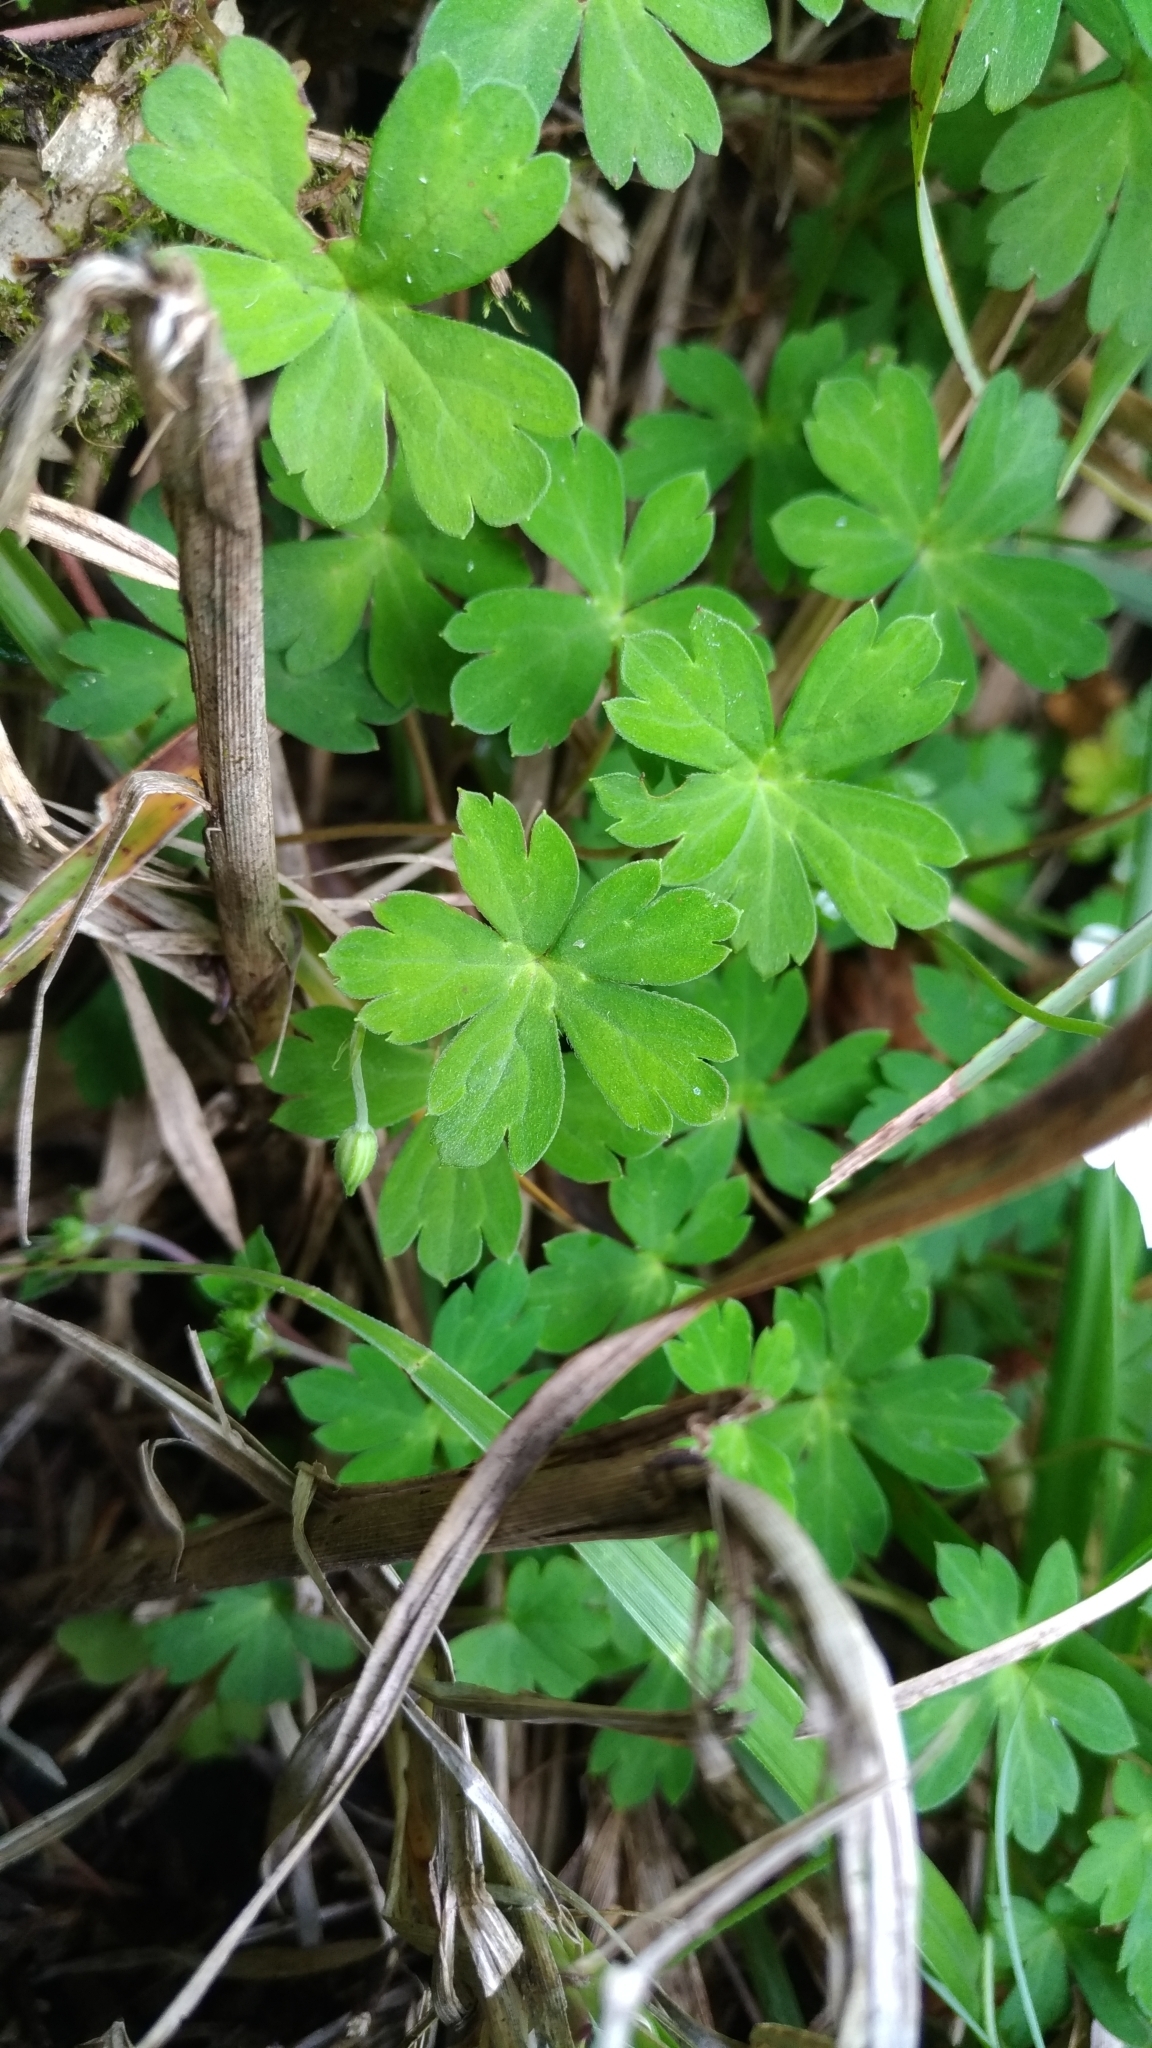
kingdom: Plantae
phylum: Tracheophyta
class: Magnoliopsida
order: Geraniales
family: Geraniaceae
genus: Geranium
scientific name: Geranium suzukii
